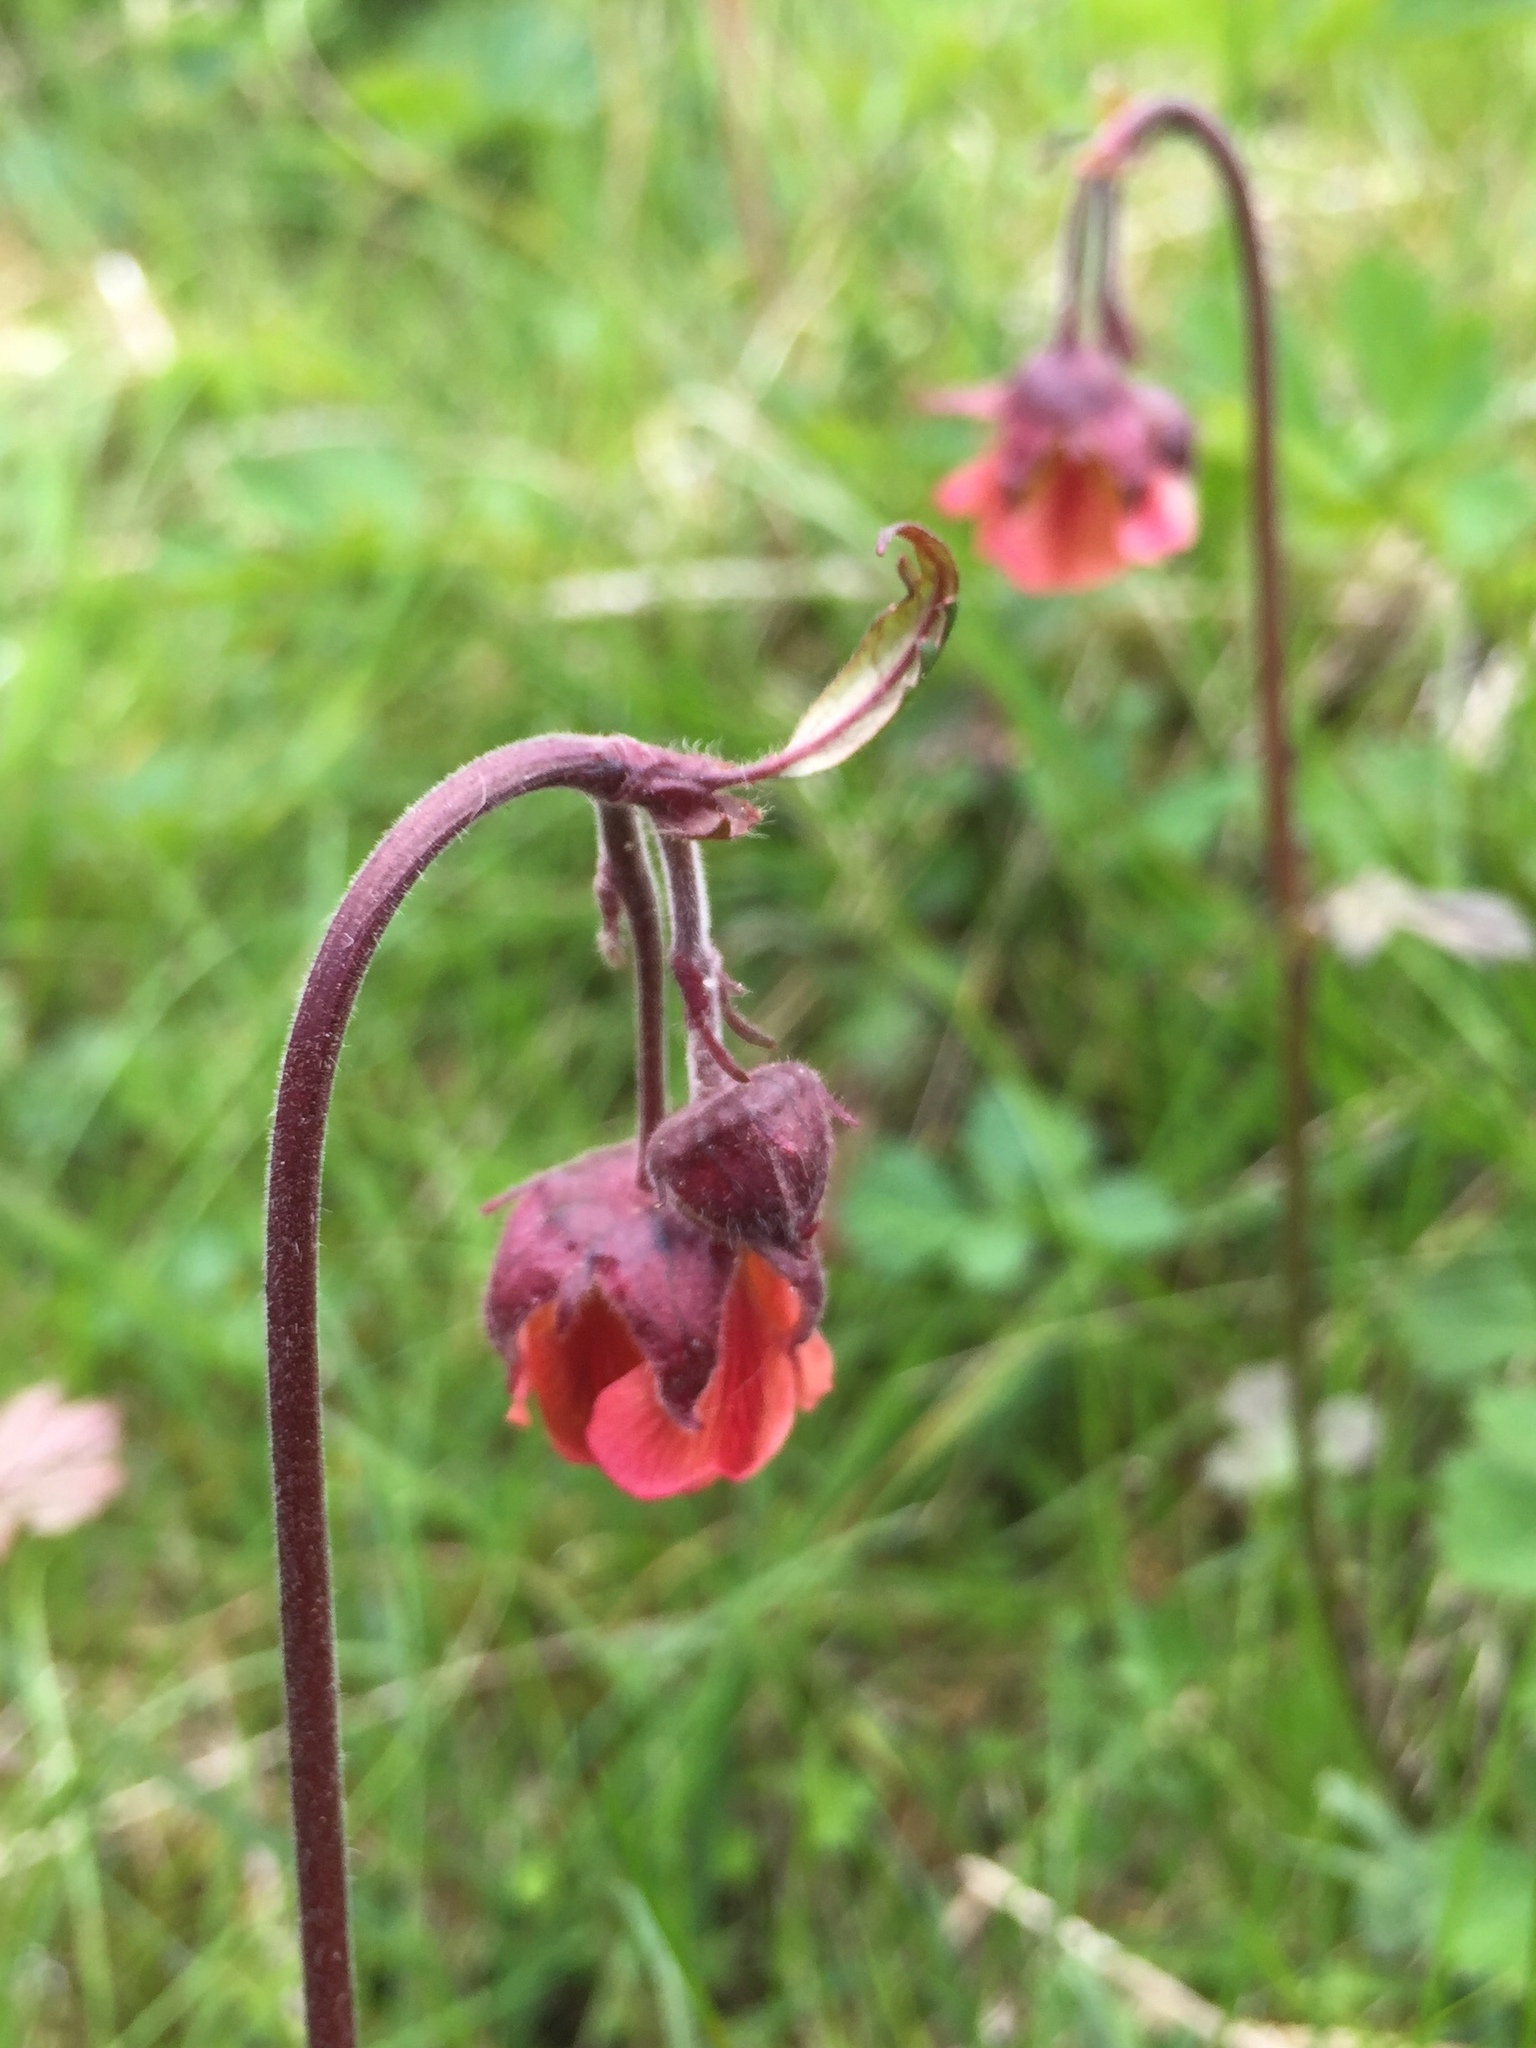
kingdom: Plantae
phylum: Tracheophyta
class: Magnoliopsida
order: Rosales
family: Rosaceae
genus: Geum
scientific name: Geum rivale
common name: Water avens
